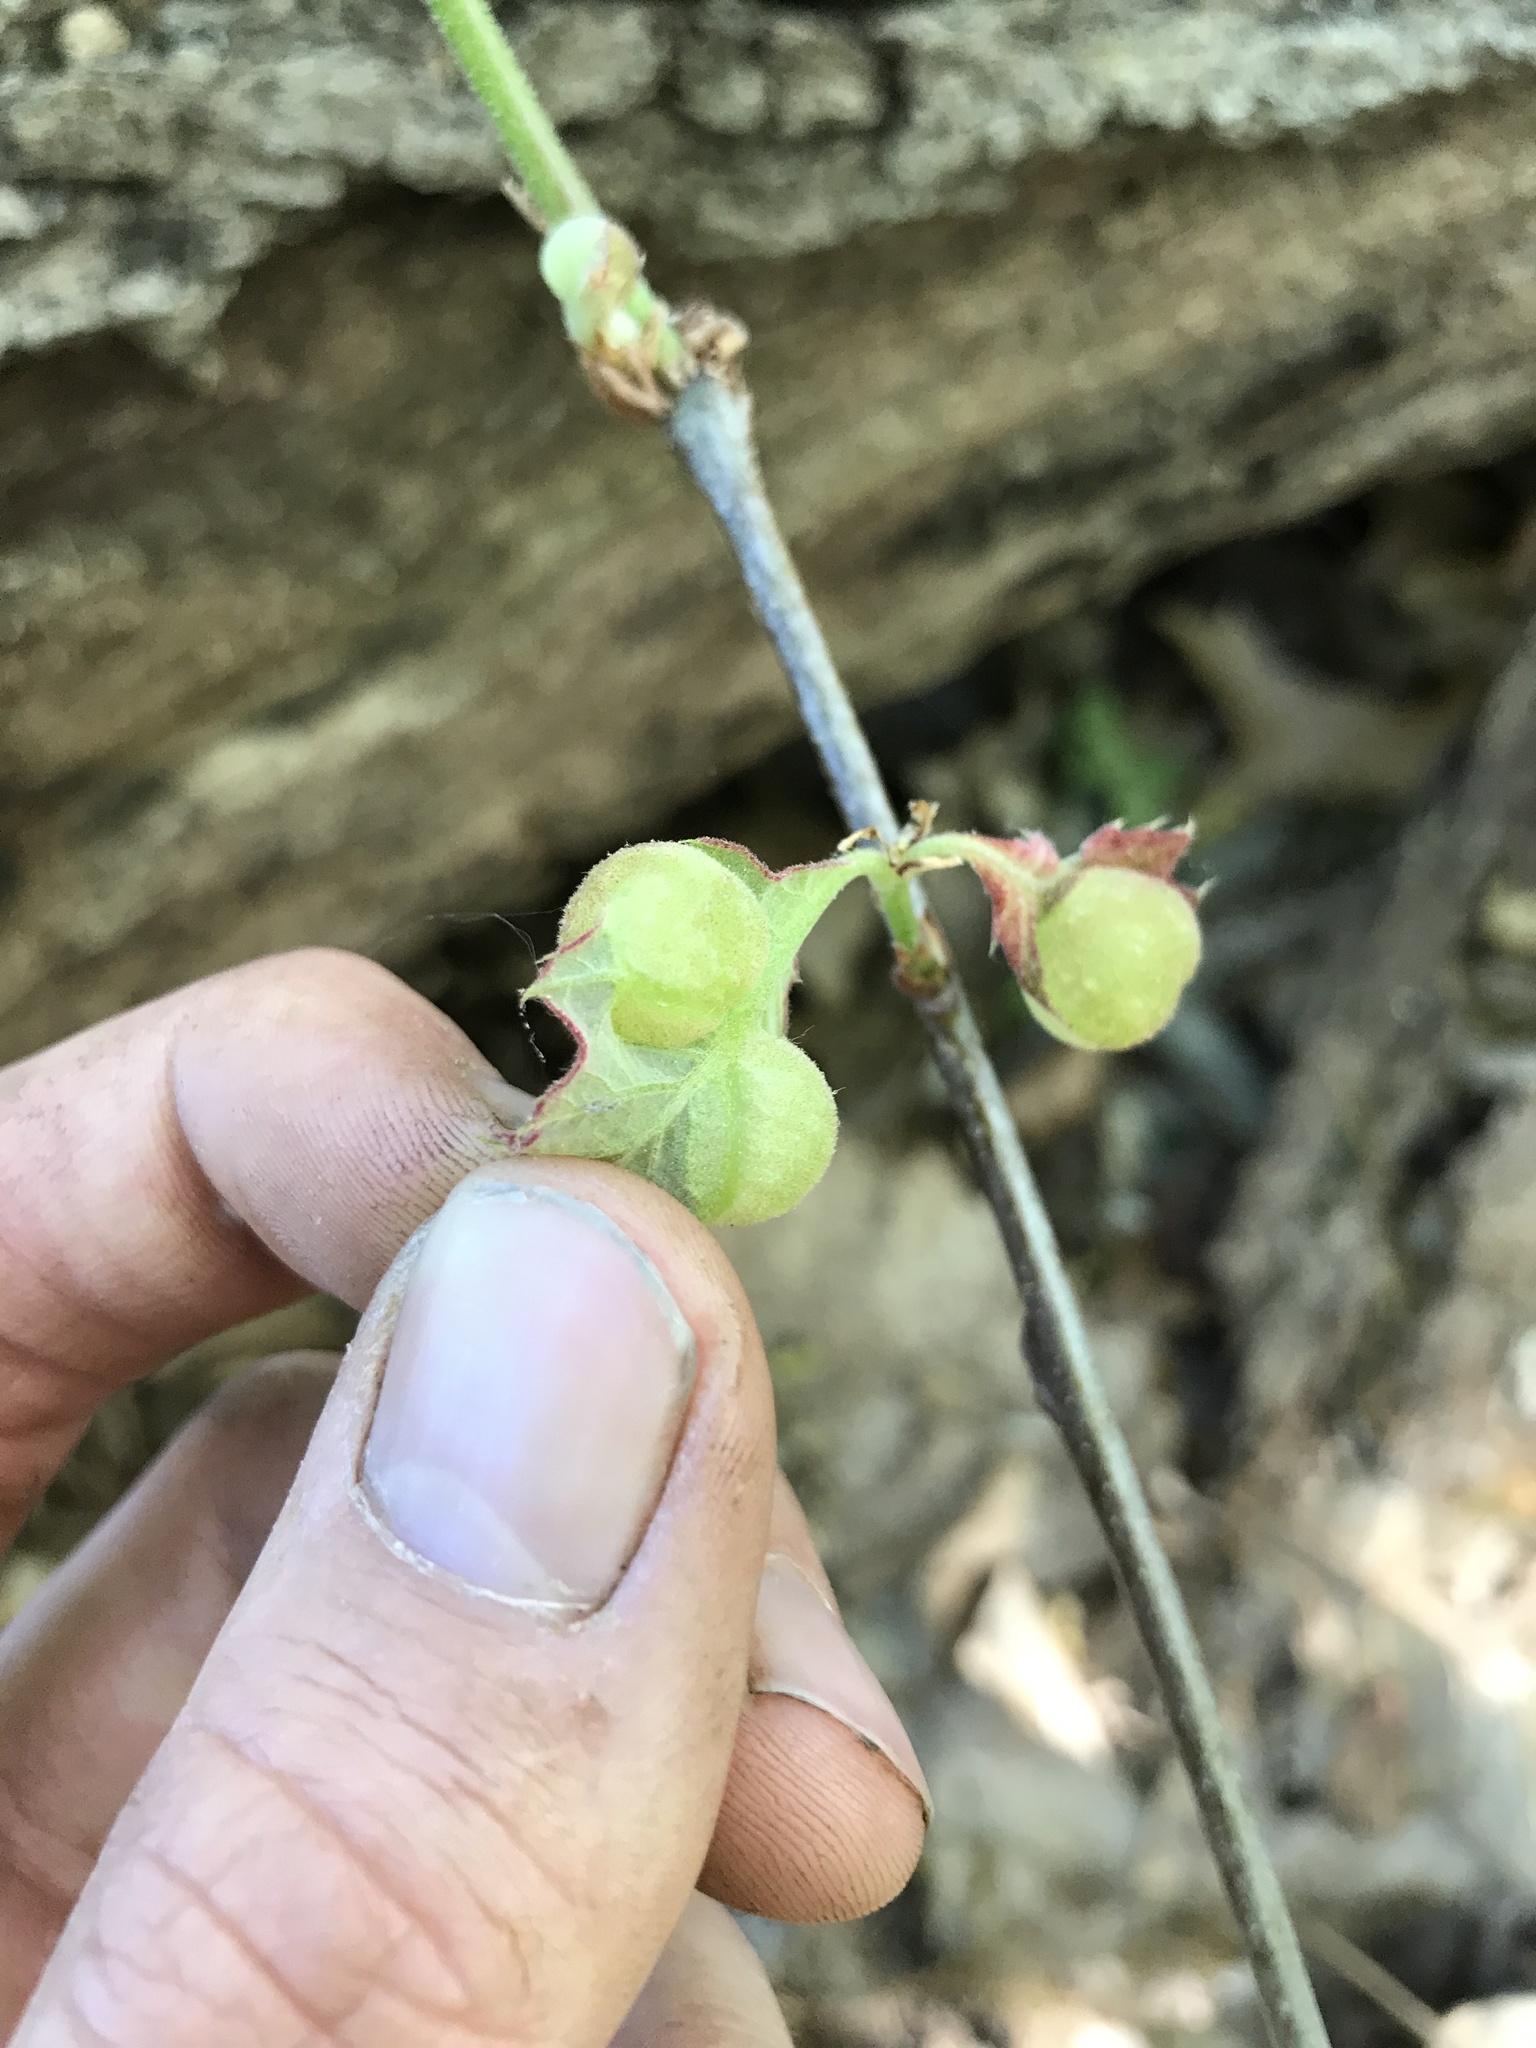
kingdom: Animalia
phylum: Arthropoda
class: Insecta
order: Hymenoptera
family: Cynipidae
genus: Dryocosmus
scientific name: Dryocosmus quercuspalustris
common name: Succulent oak gall wasp
